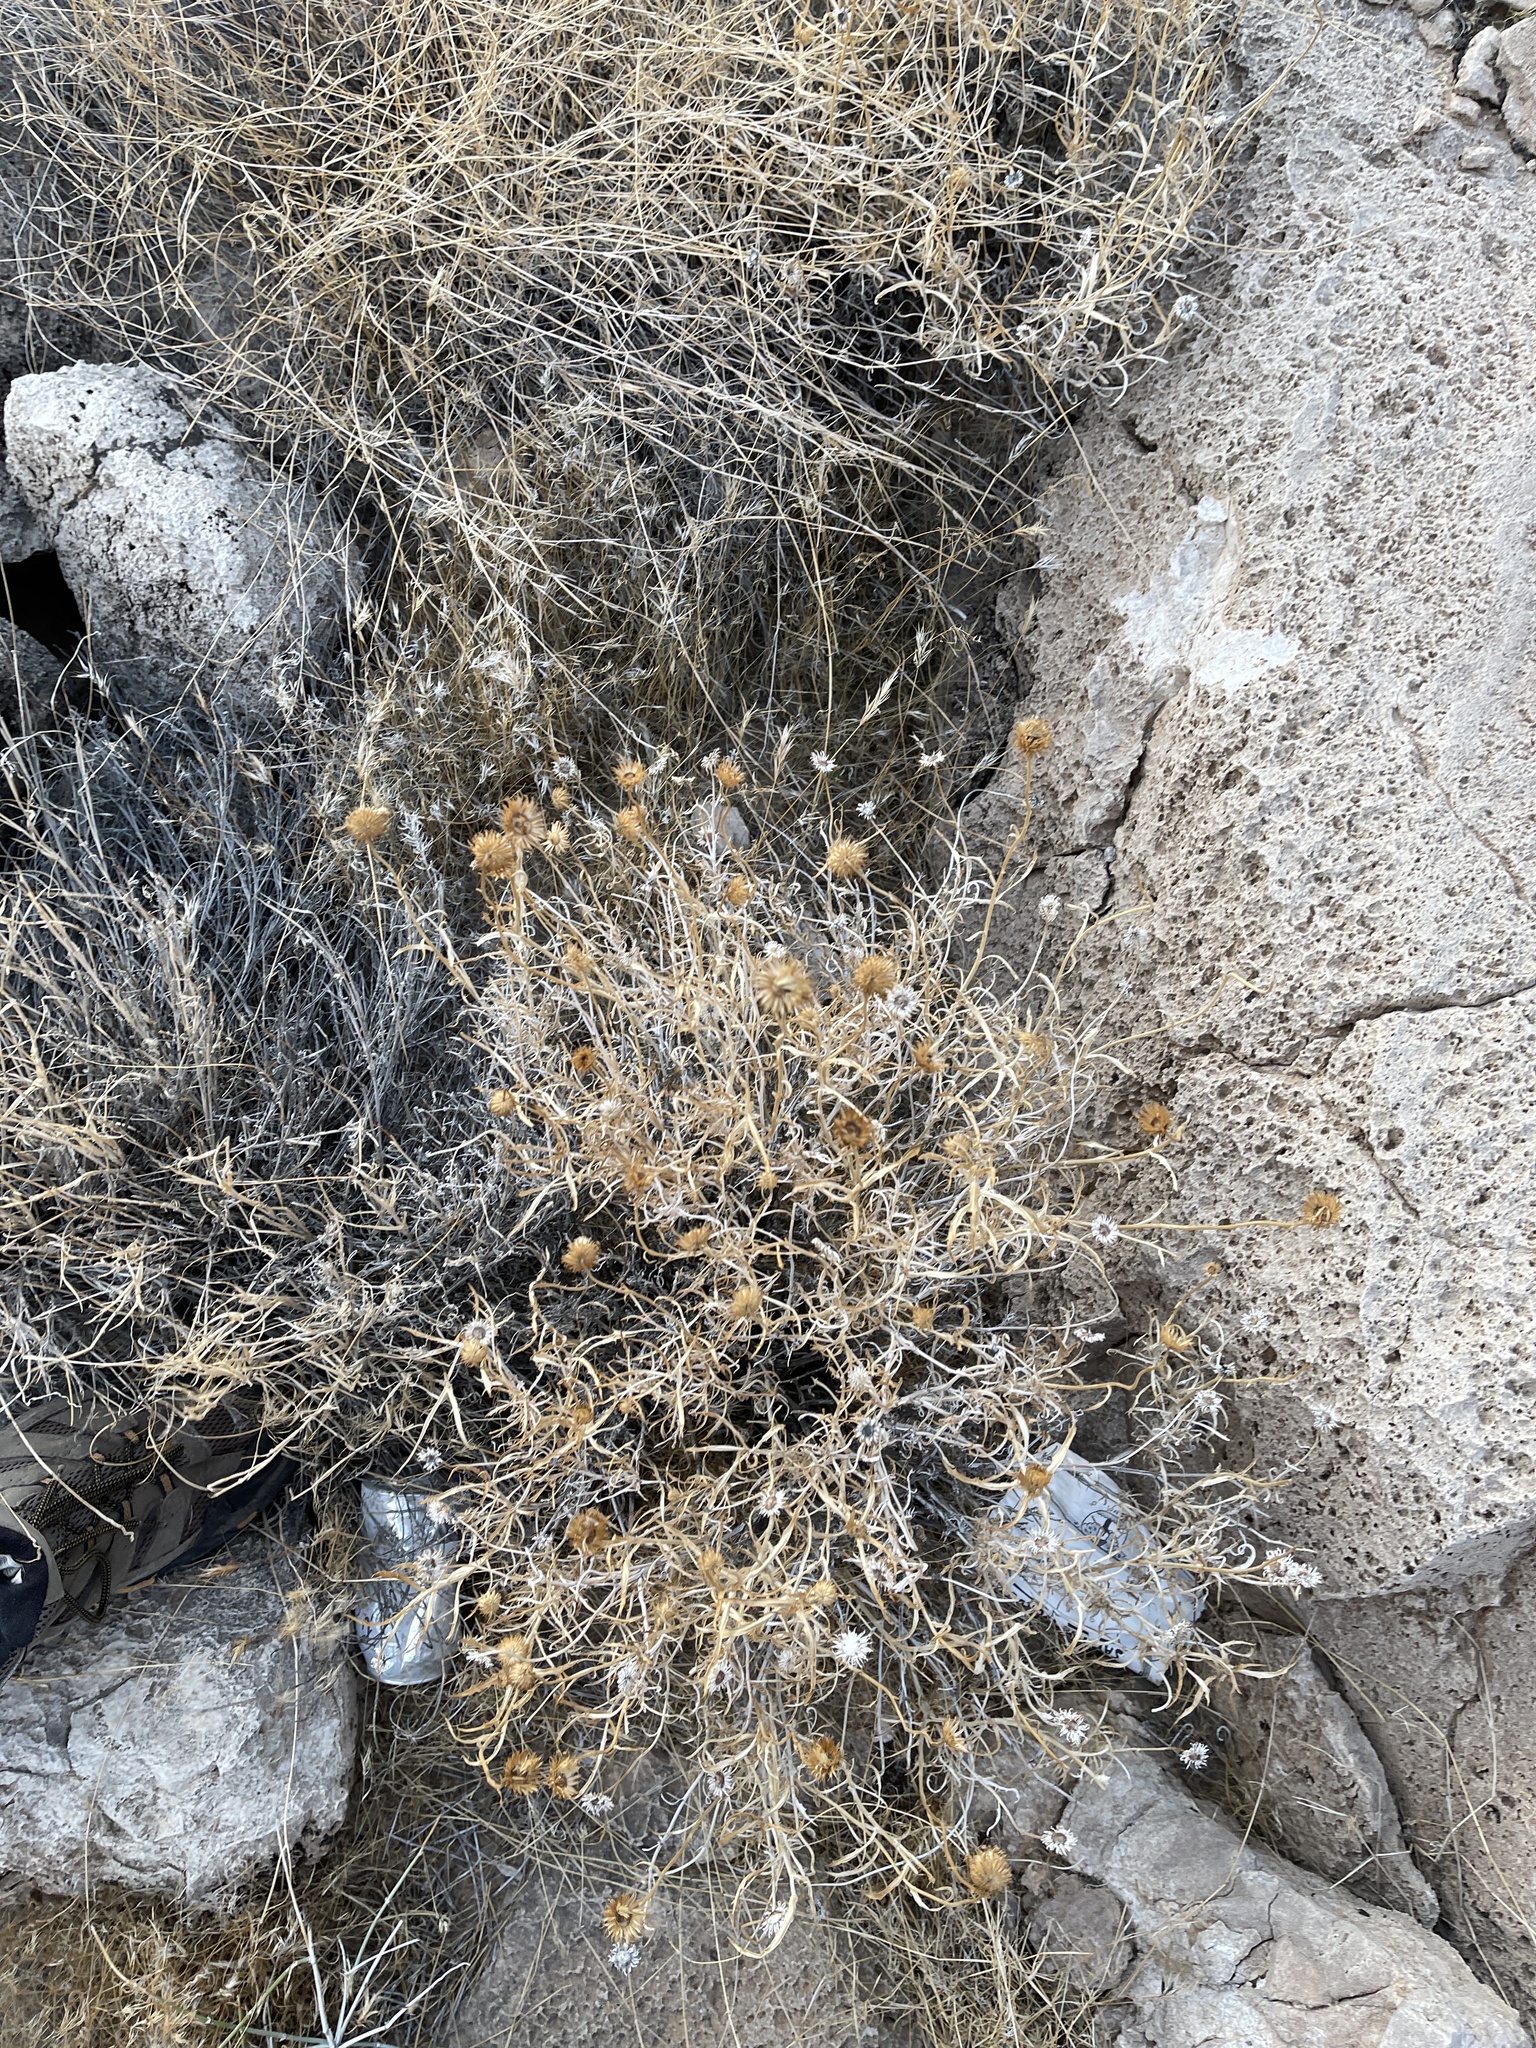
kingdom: Plantae
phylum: Tracheophyta
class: Magnoliopsida
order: Asterales
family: Asteraceae
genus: Xylorhiza
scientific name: Xylorhiza tortifolia
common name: Hurt-leaf woody-aster
